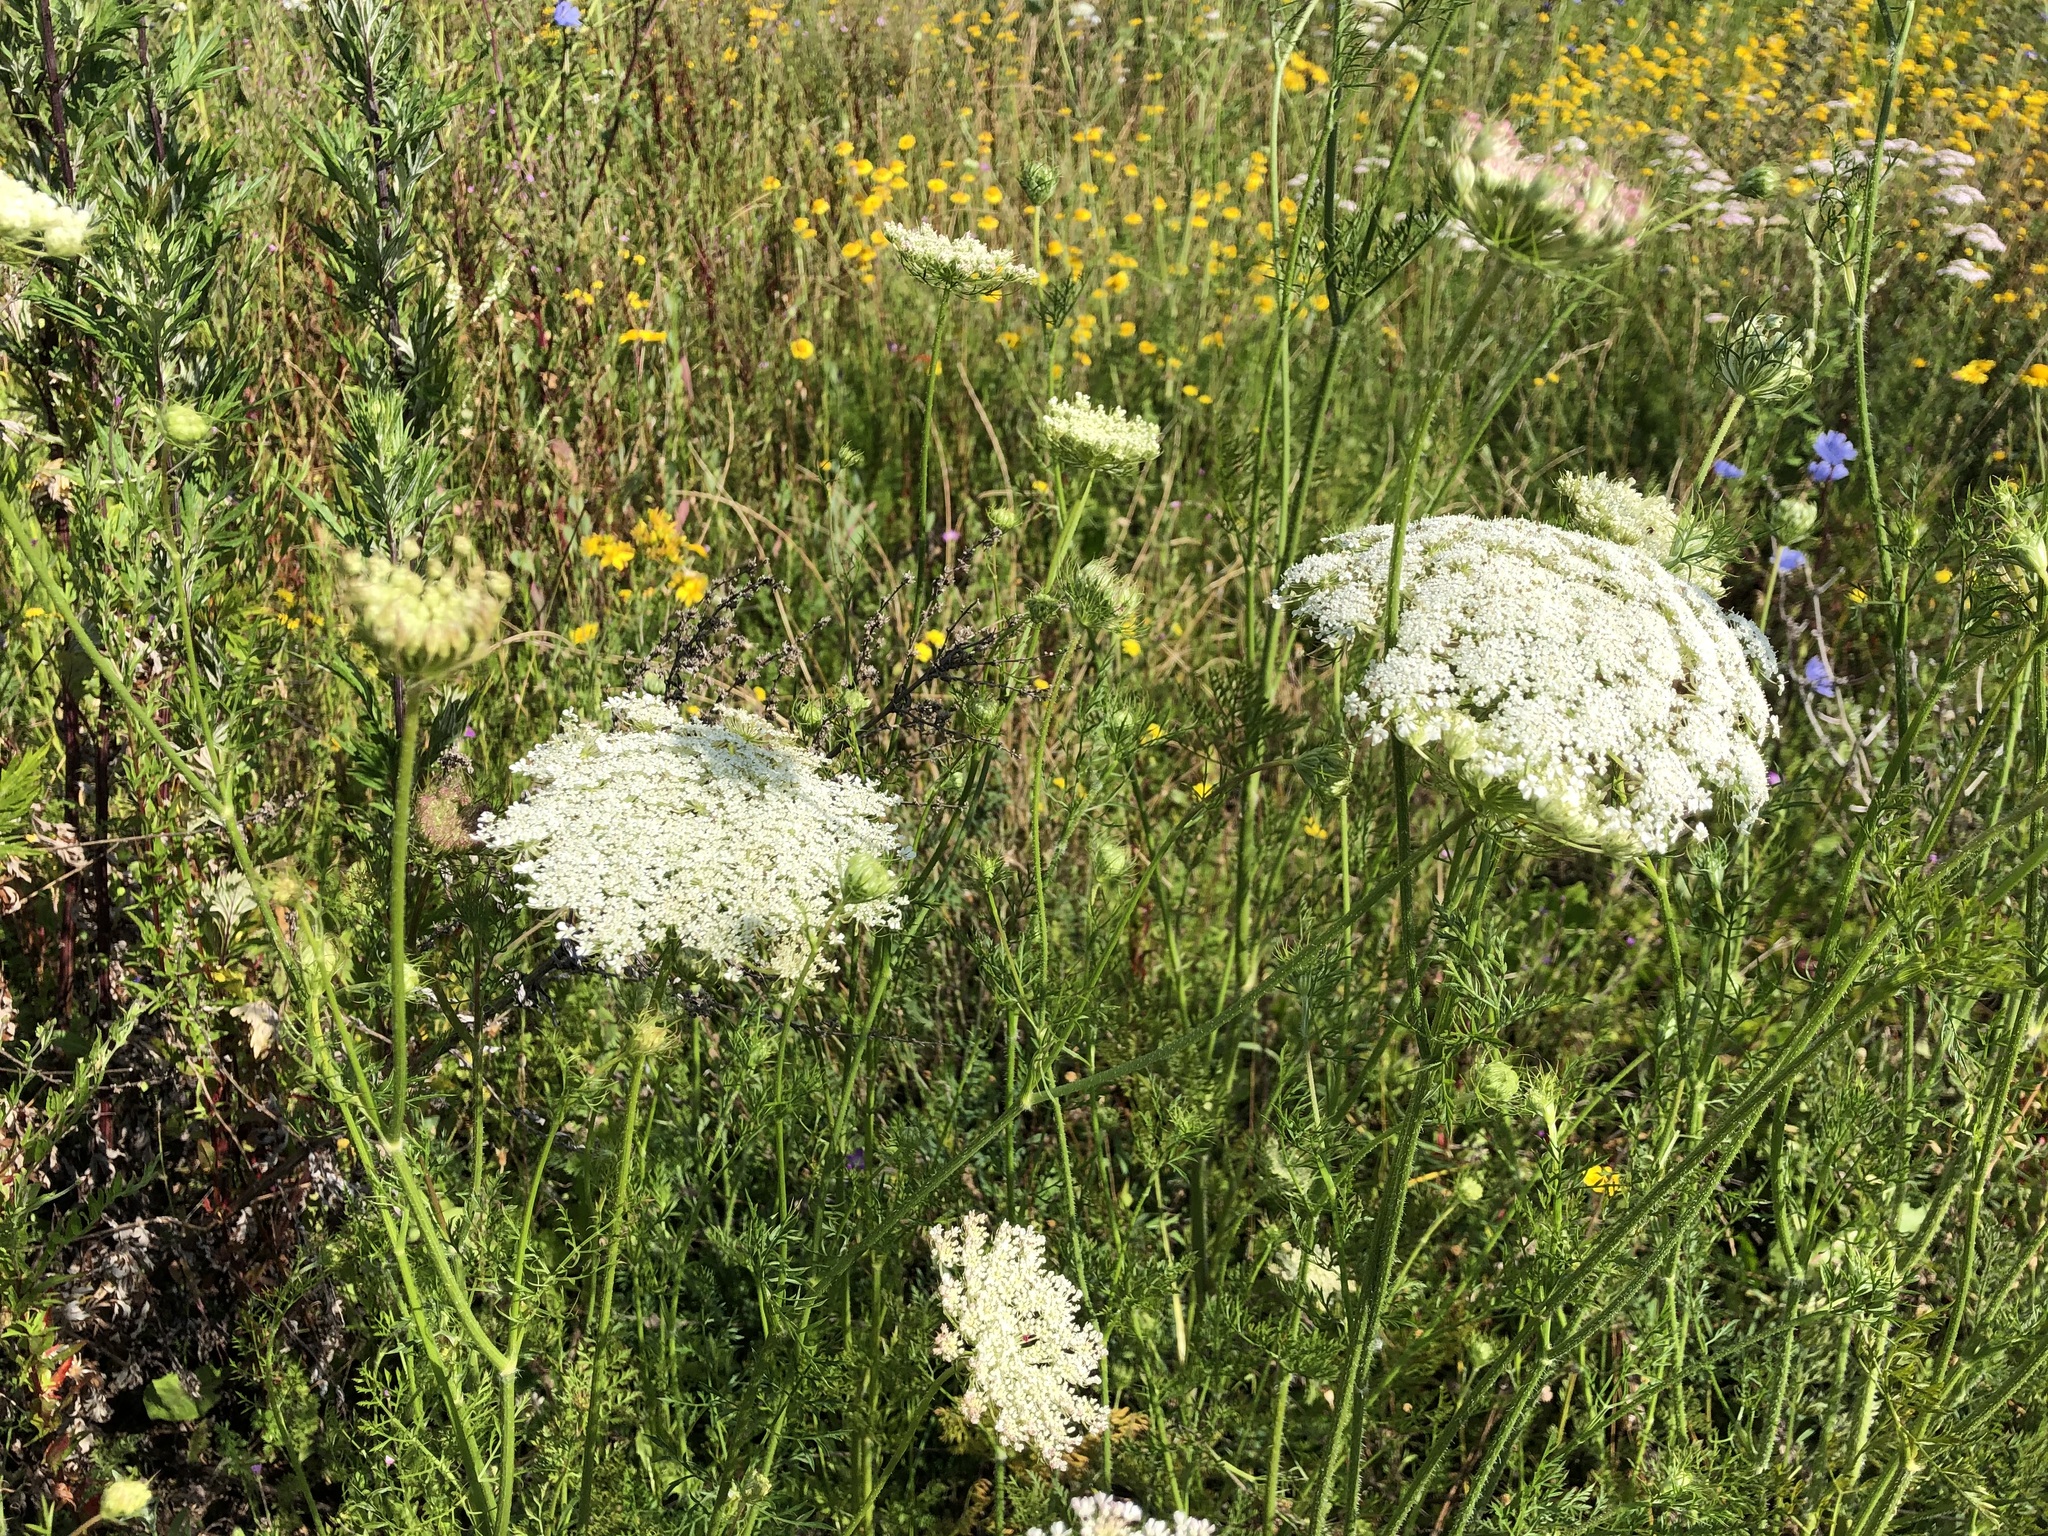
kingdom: Plantae
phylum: Tracheophyta
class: Magnoliopsida
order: Apiales
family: Apiaceae
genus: Daucus
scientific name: Daucus carota
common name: Wild carrot
